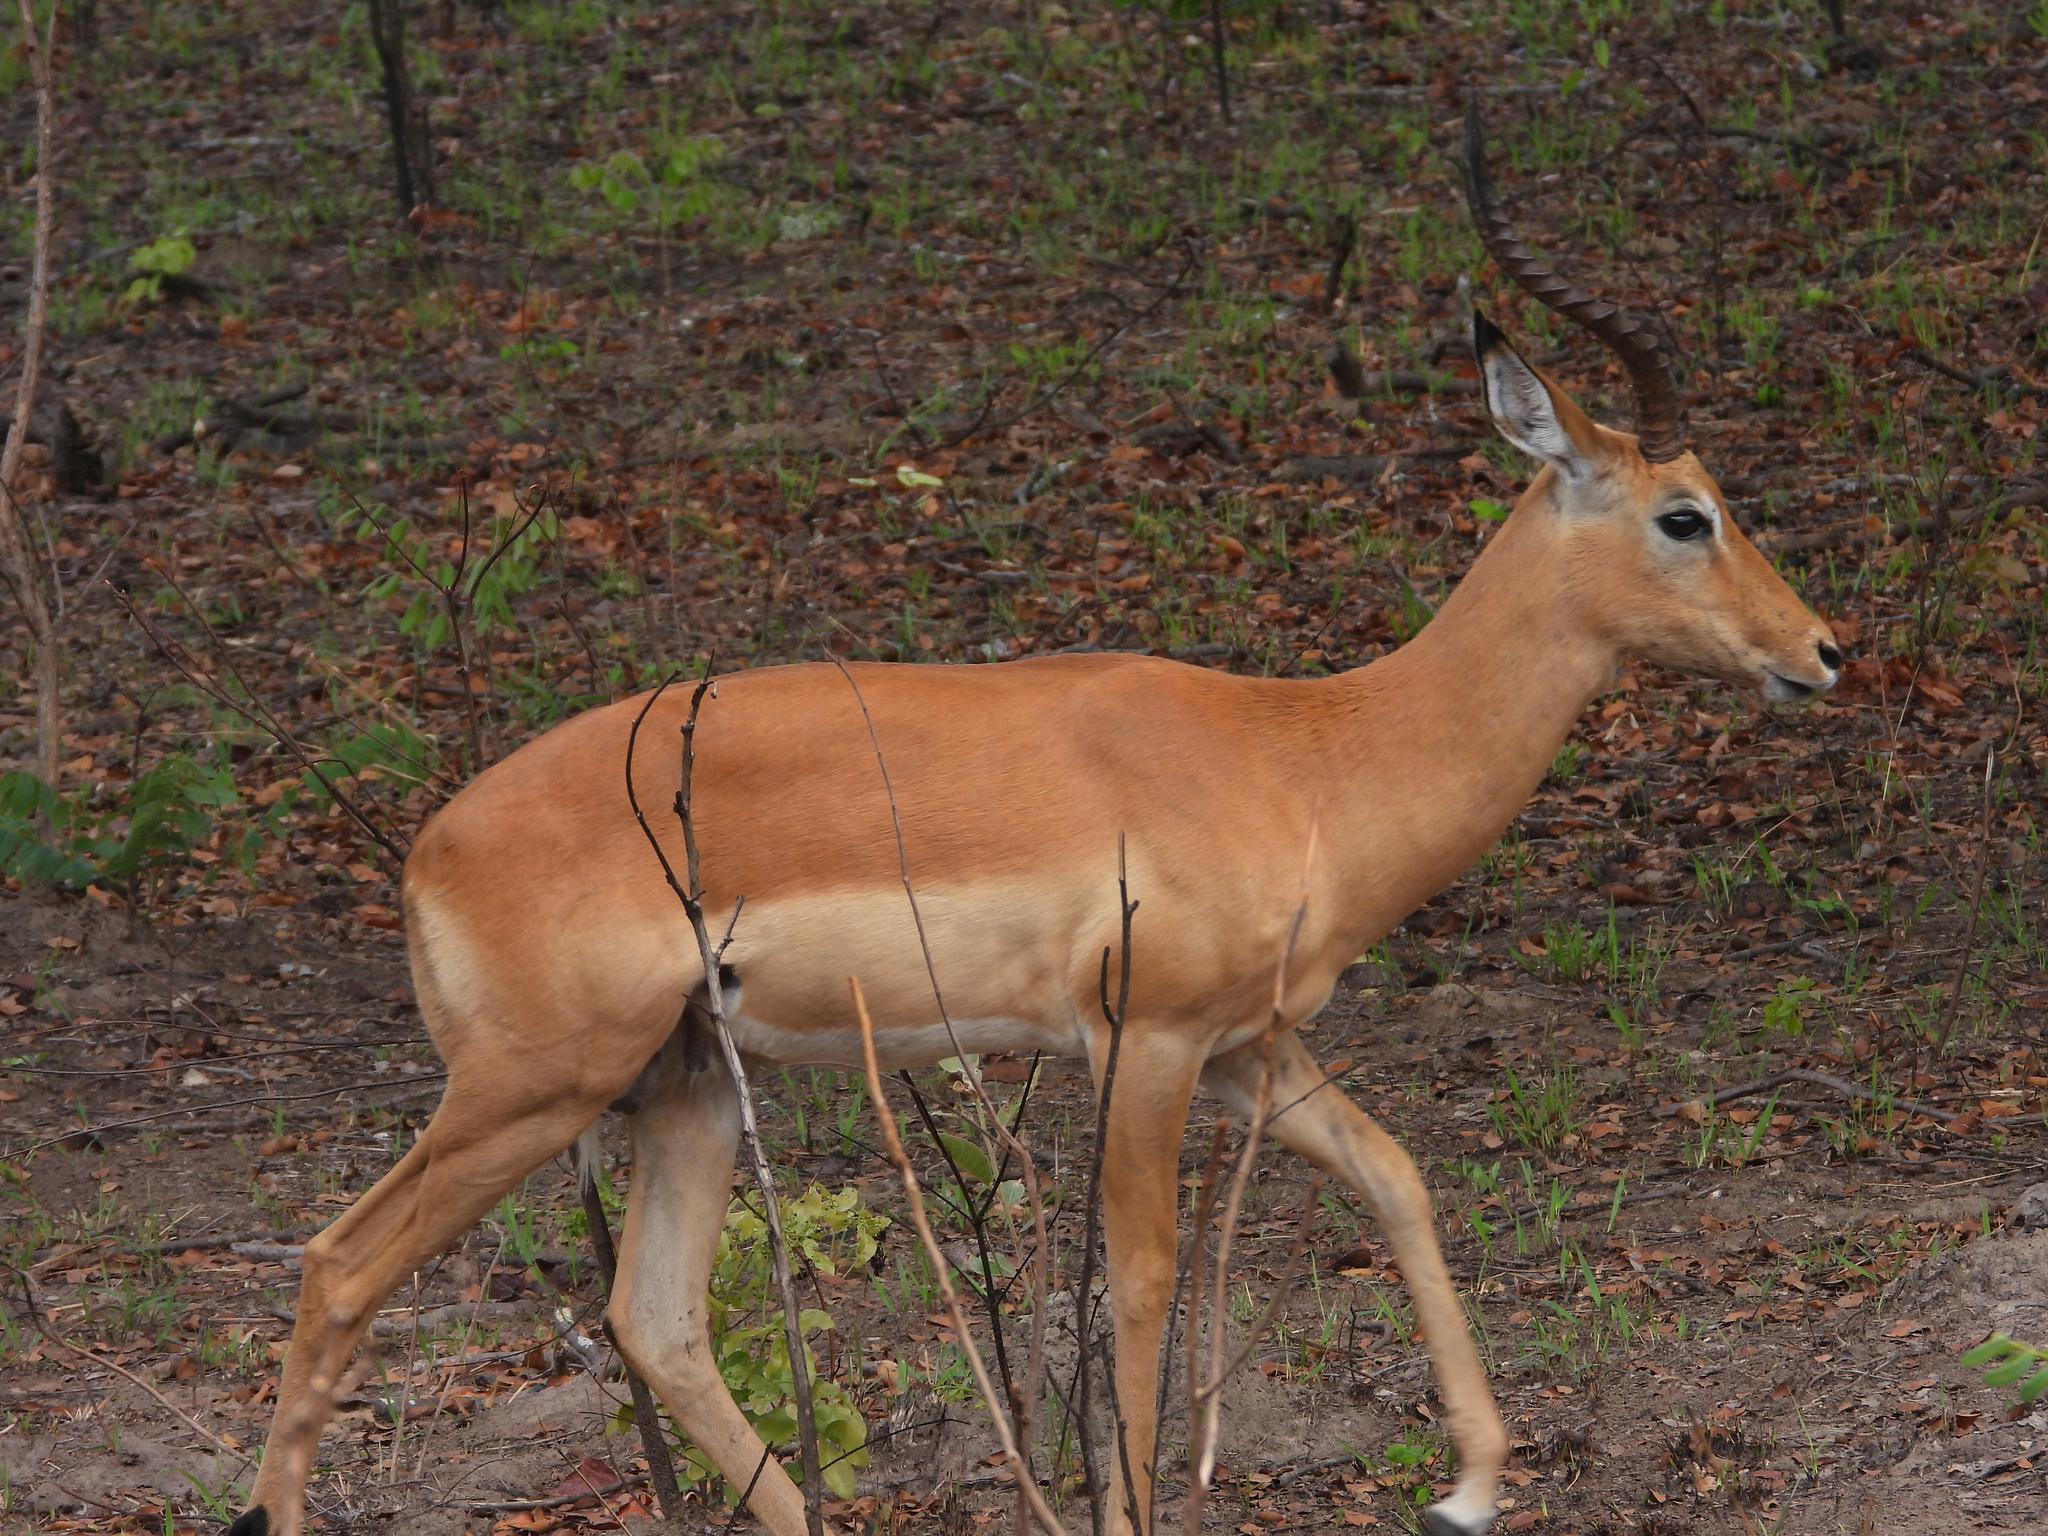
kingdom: Animalia
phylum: Chordata
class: Mammalia
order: Artiodactyla
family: Bovidae
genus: Aepyceros
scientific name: Aepyceros melampus
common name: Impala
